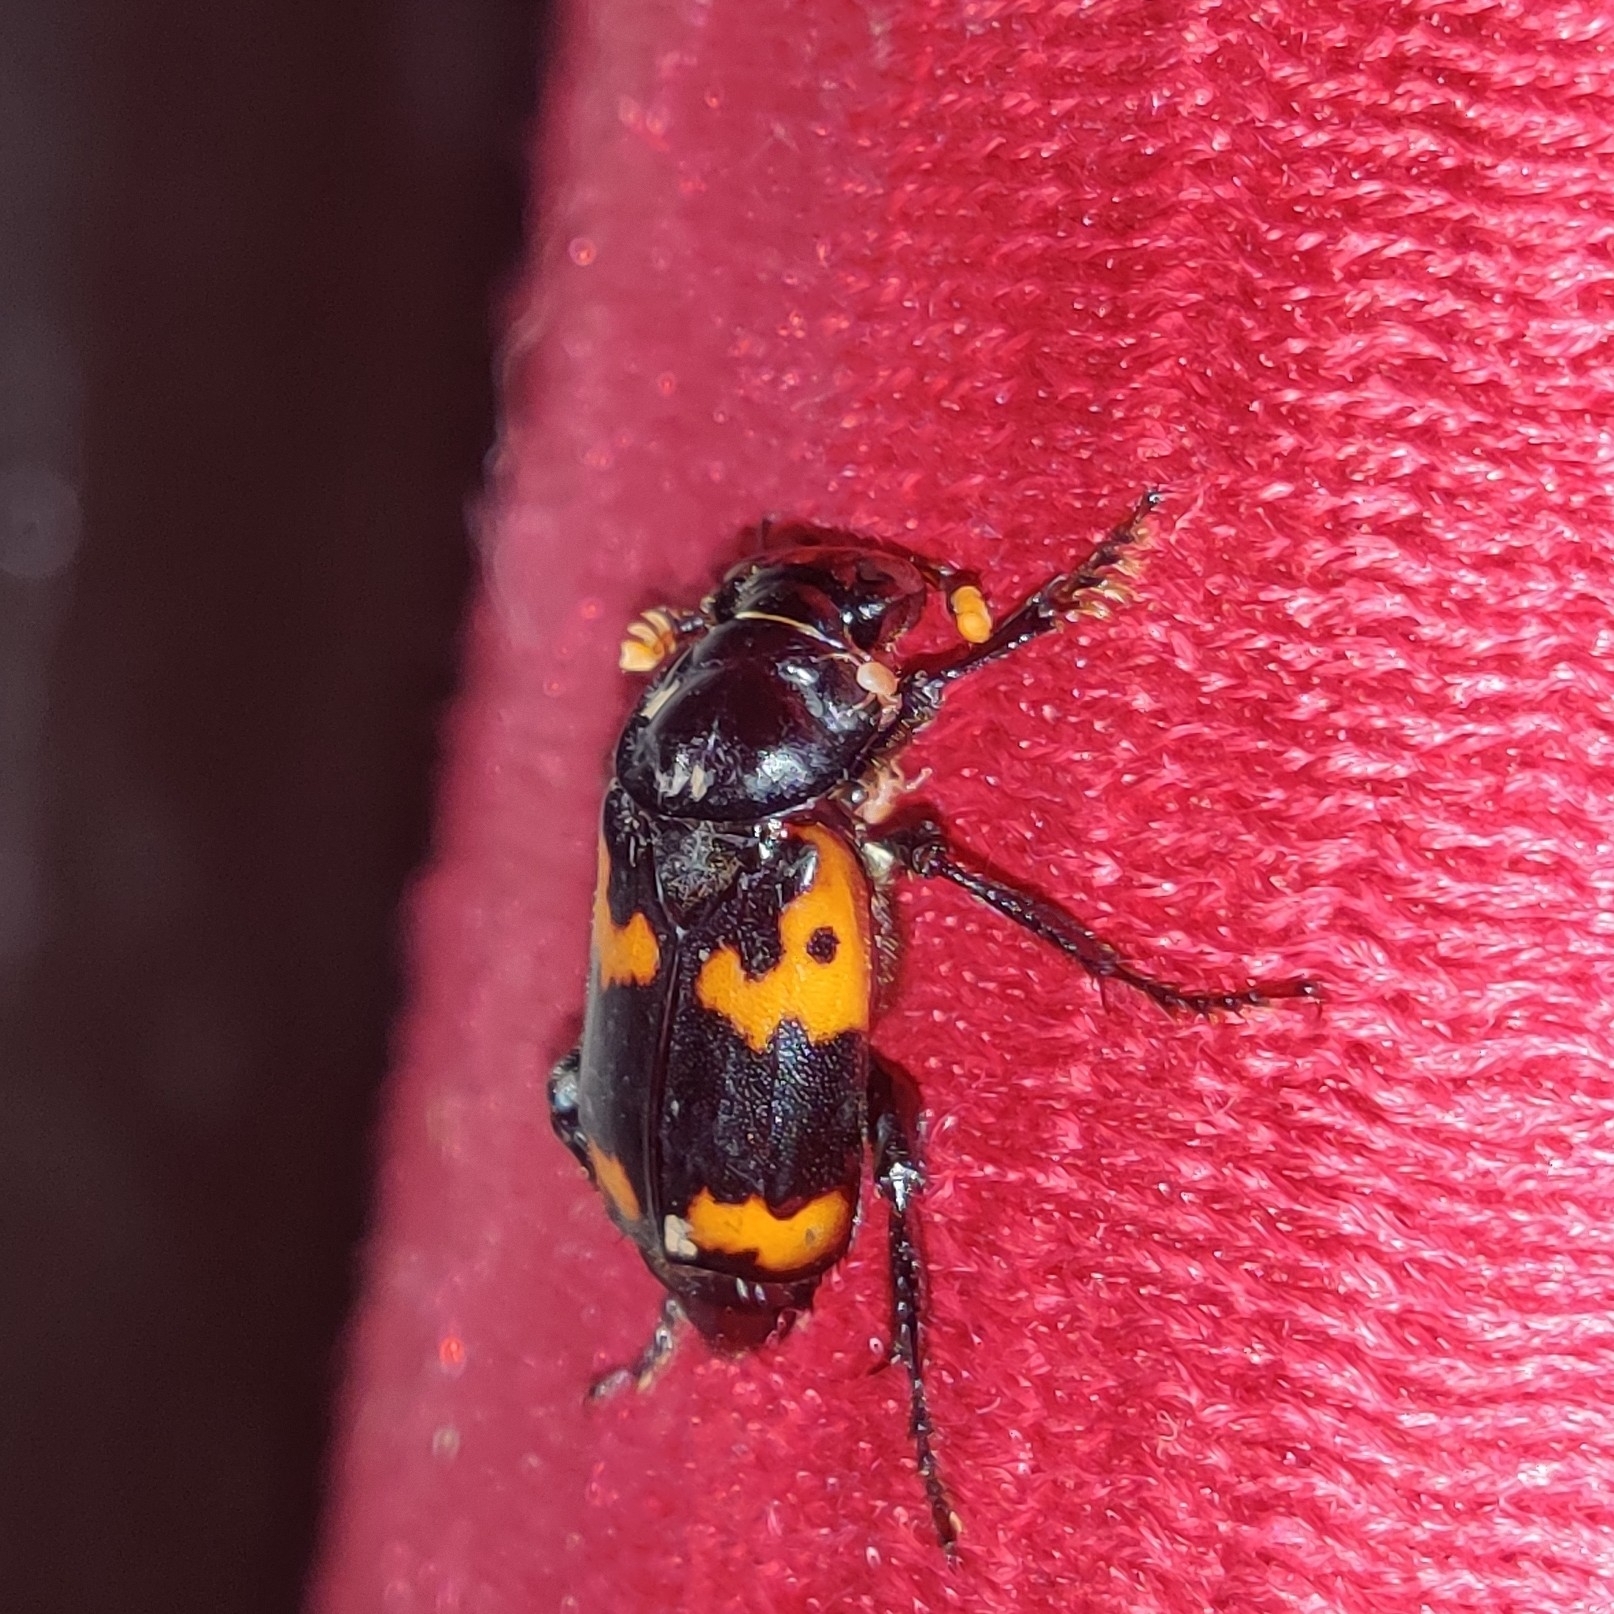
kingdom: Animalia
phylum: Arthropoda
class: Insecta
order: Coleoptera
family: Staphylinidae
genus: Nicrophorus
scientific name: Nicrophorus nepalensis
